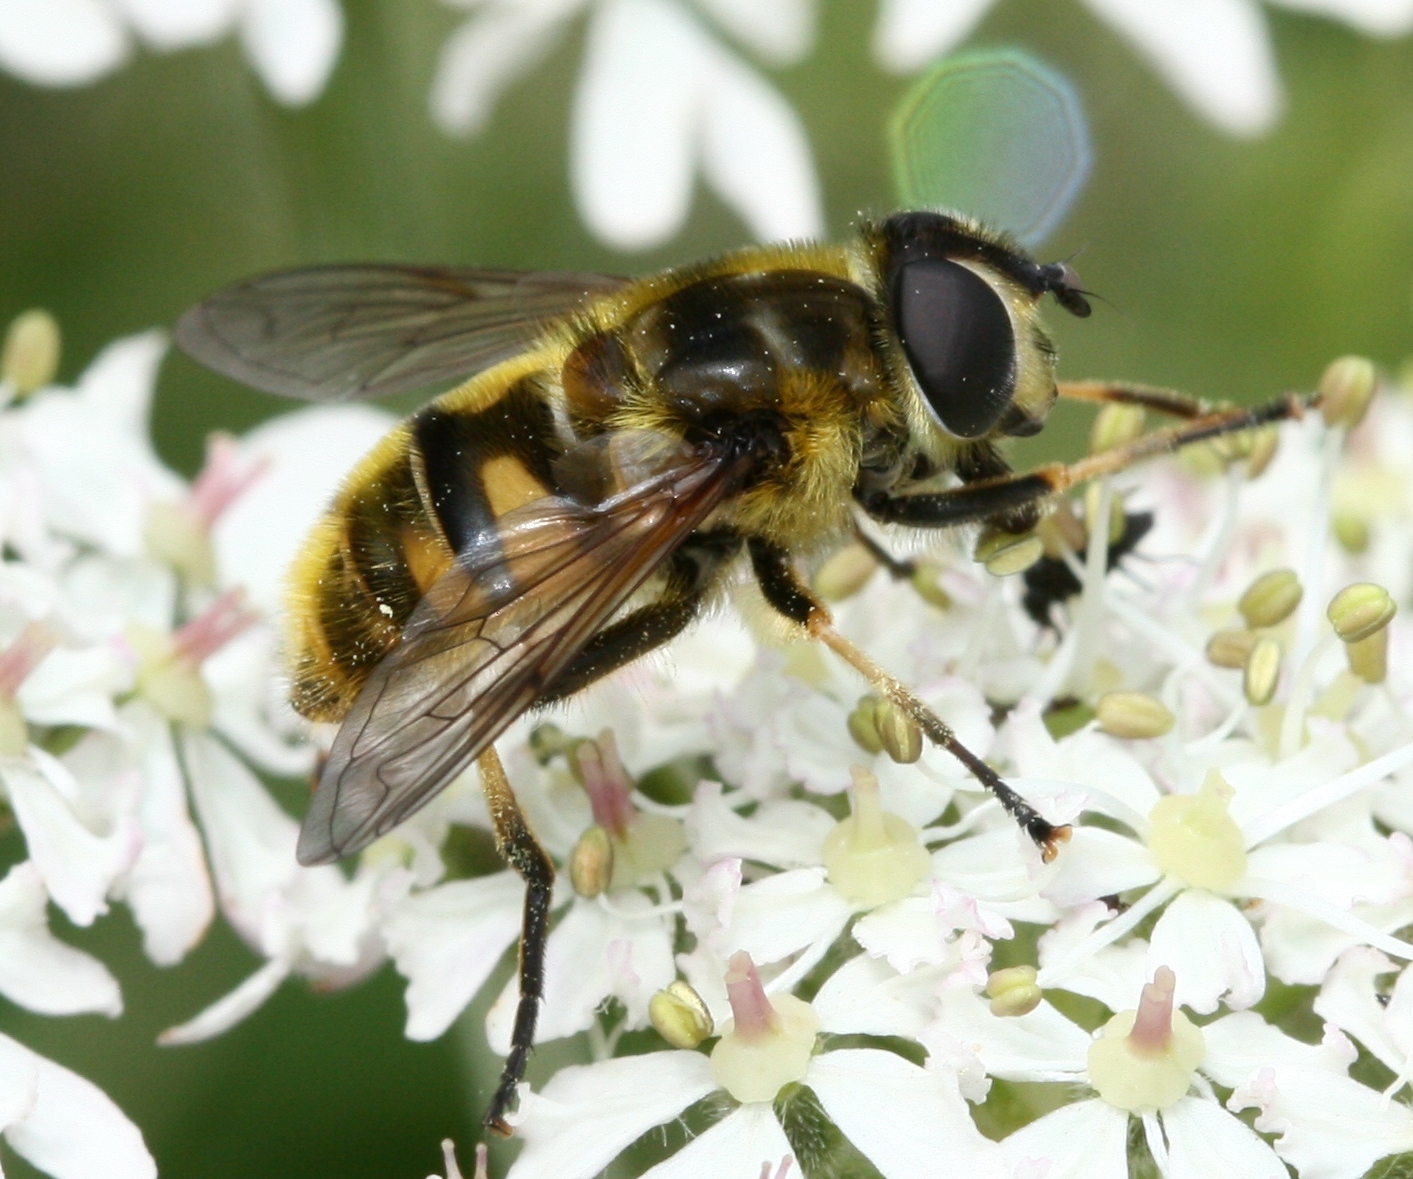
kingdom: Animalia
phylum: Arthropoda
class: Insecta
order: Diptera
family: Syrphidae
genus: Myathropa
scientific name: Myathropa florea
